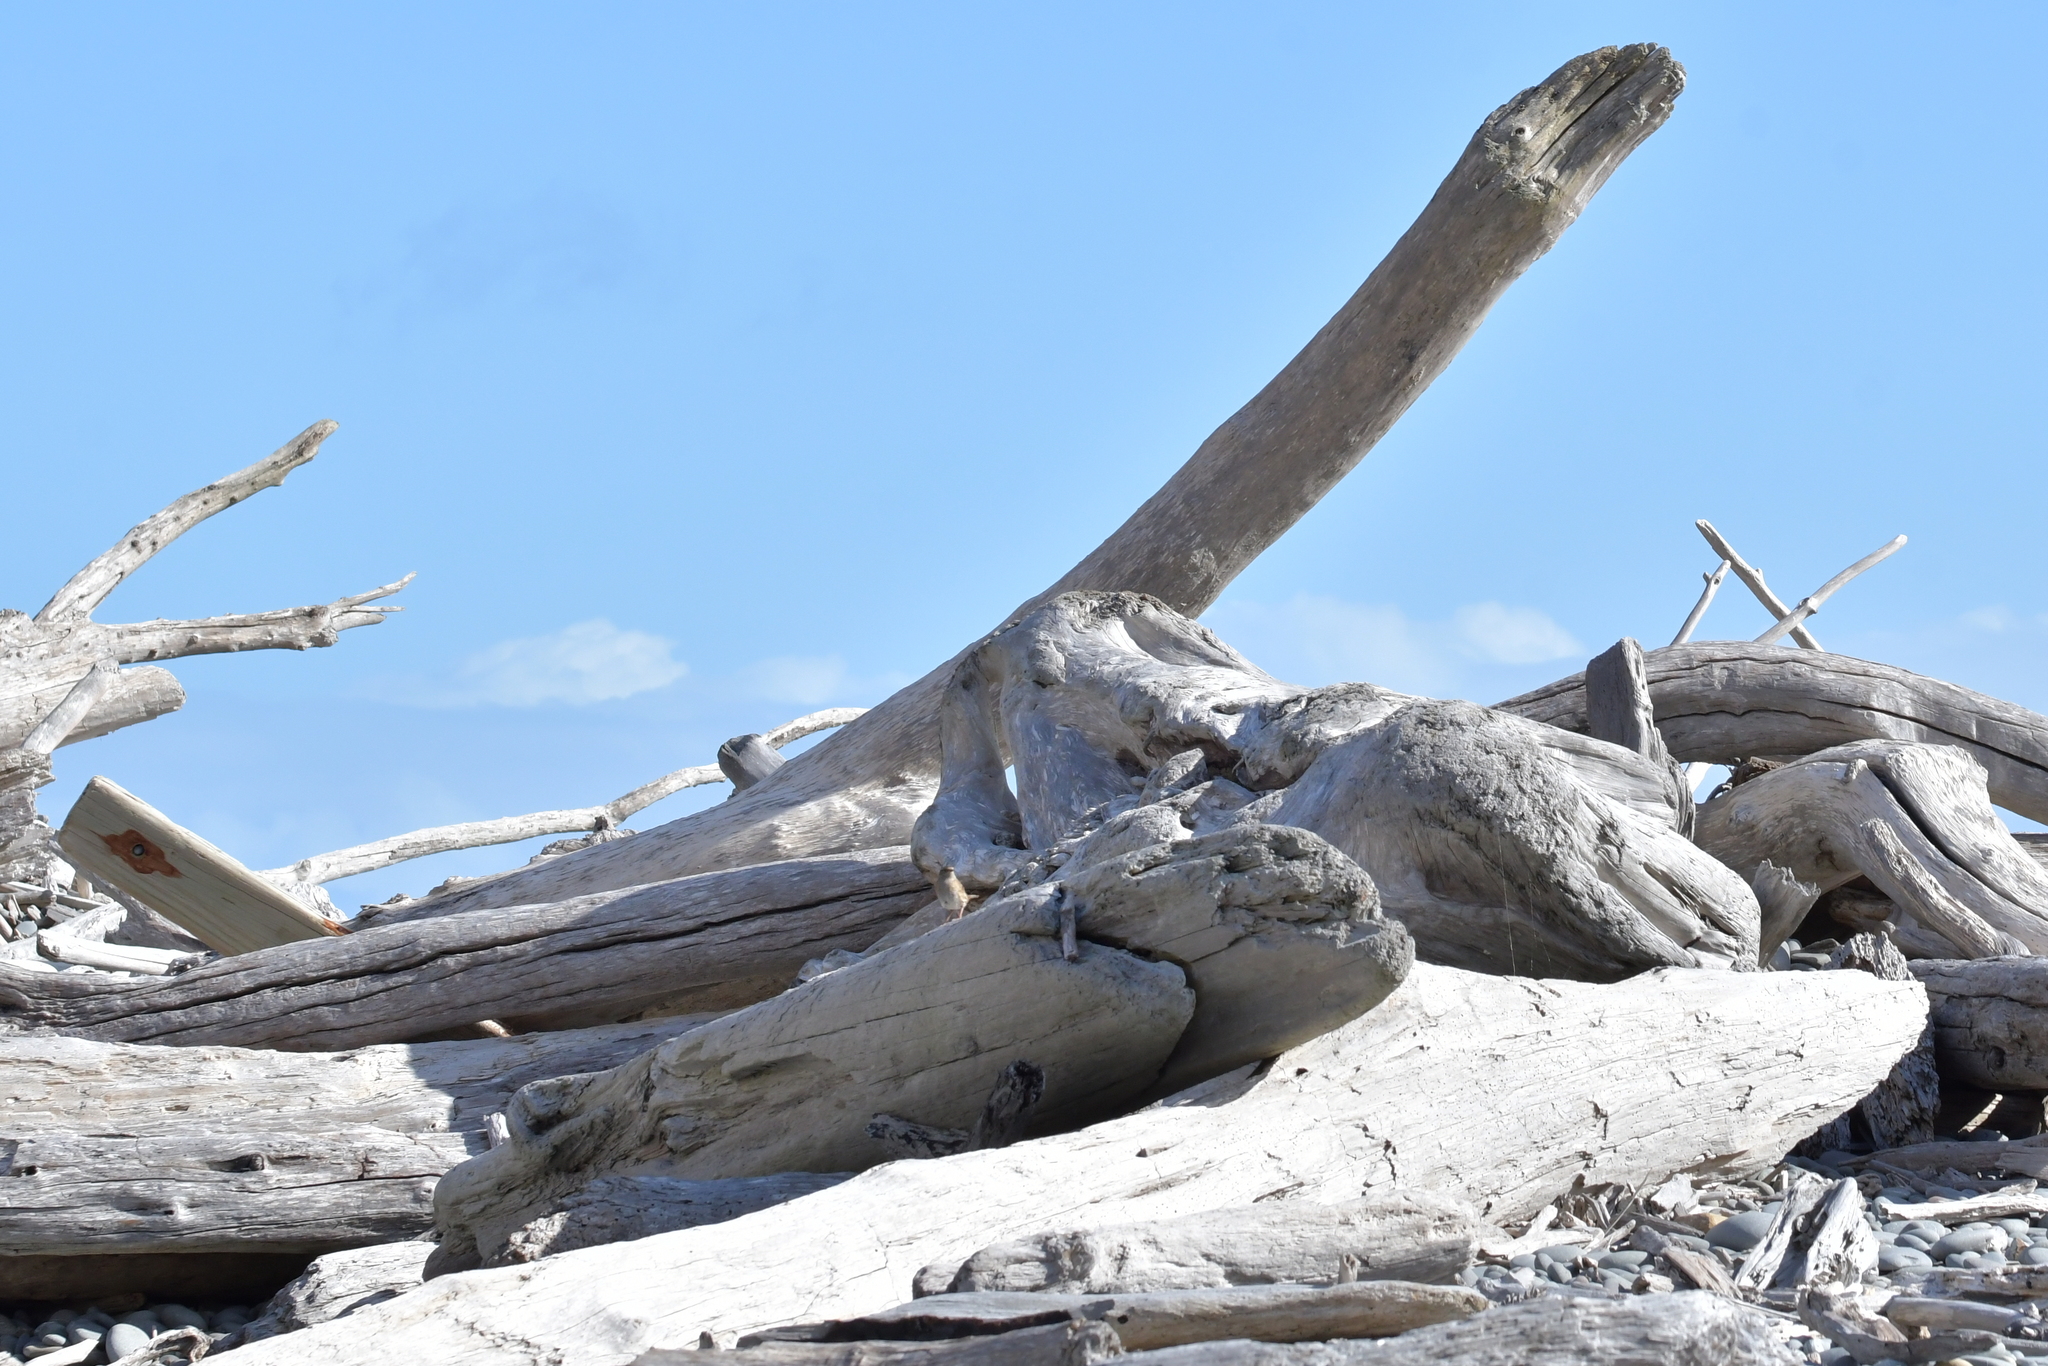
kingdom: Animalia
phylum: Chordata
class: Aves
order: Passeriformes
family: Prunellidae
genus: Prunella
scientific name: Prunella modularis
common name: Dunnock
